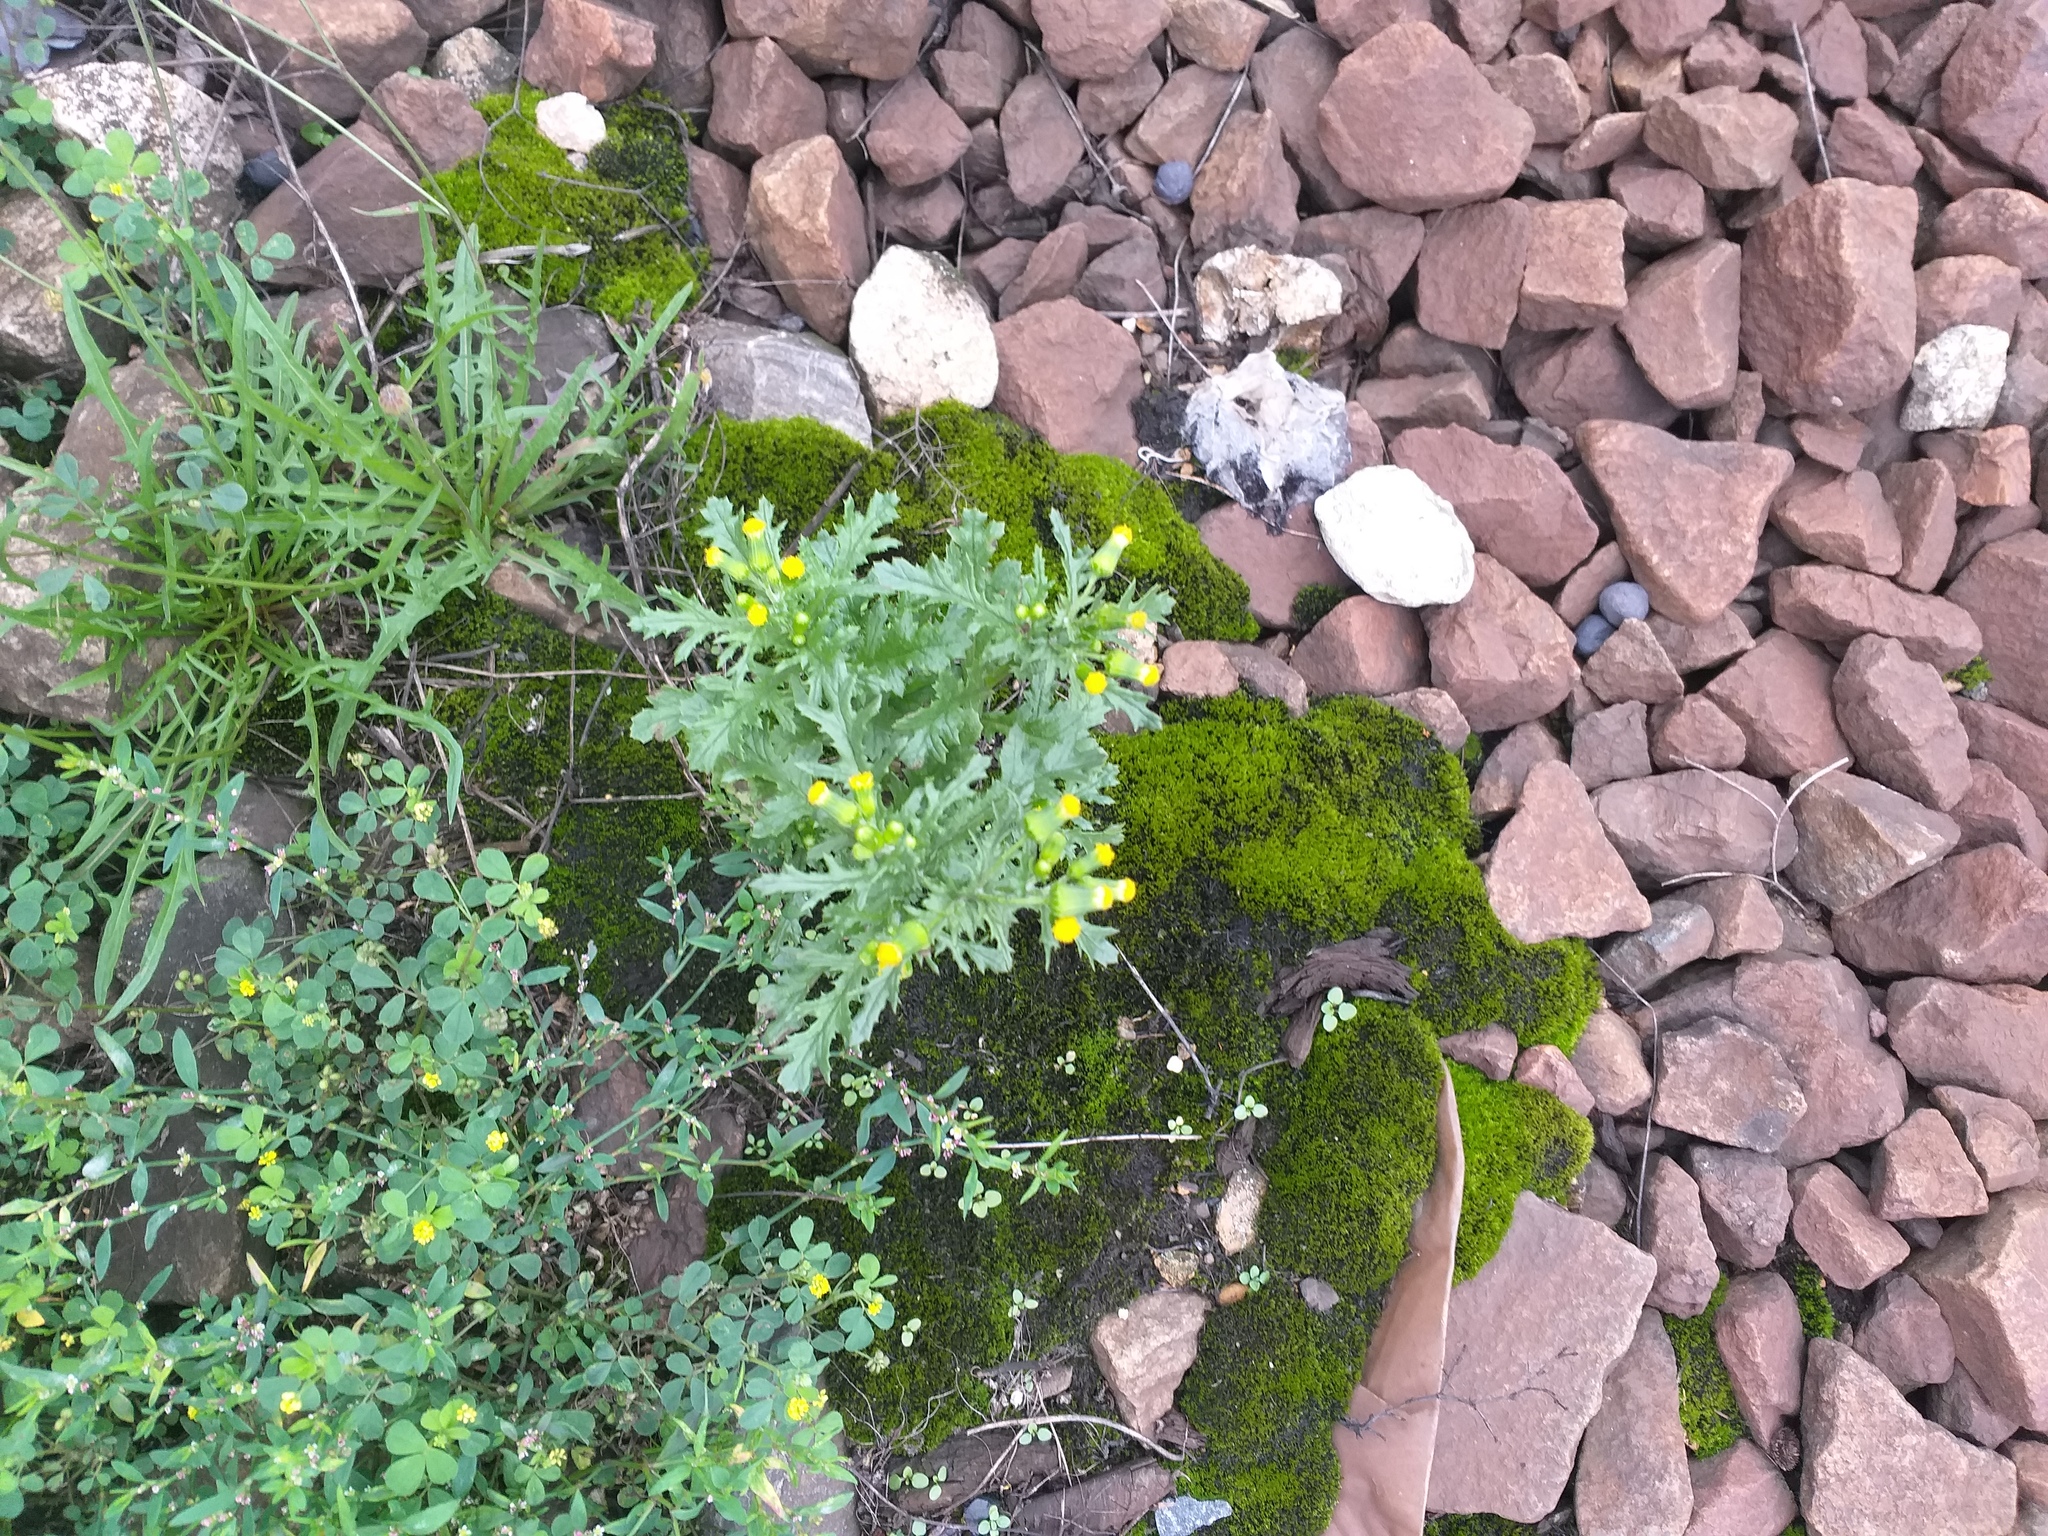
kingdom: Plantae
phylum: Tracheophyta
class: Magnoliopsida
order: Asterales
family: Asteraceae
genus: Senecio
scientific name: Senecio vulgaris
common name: Old-man-in-the-spring
